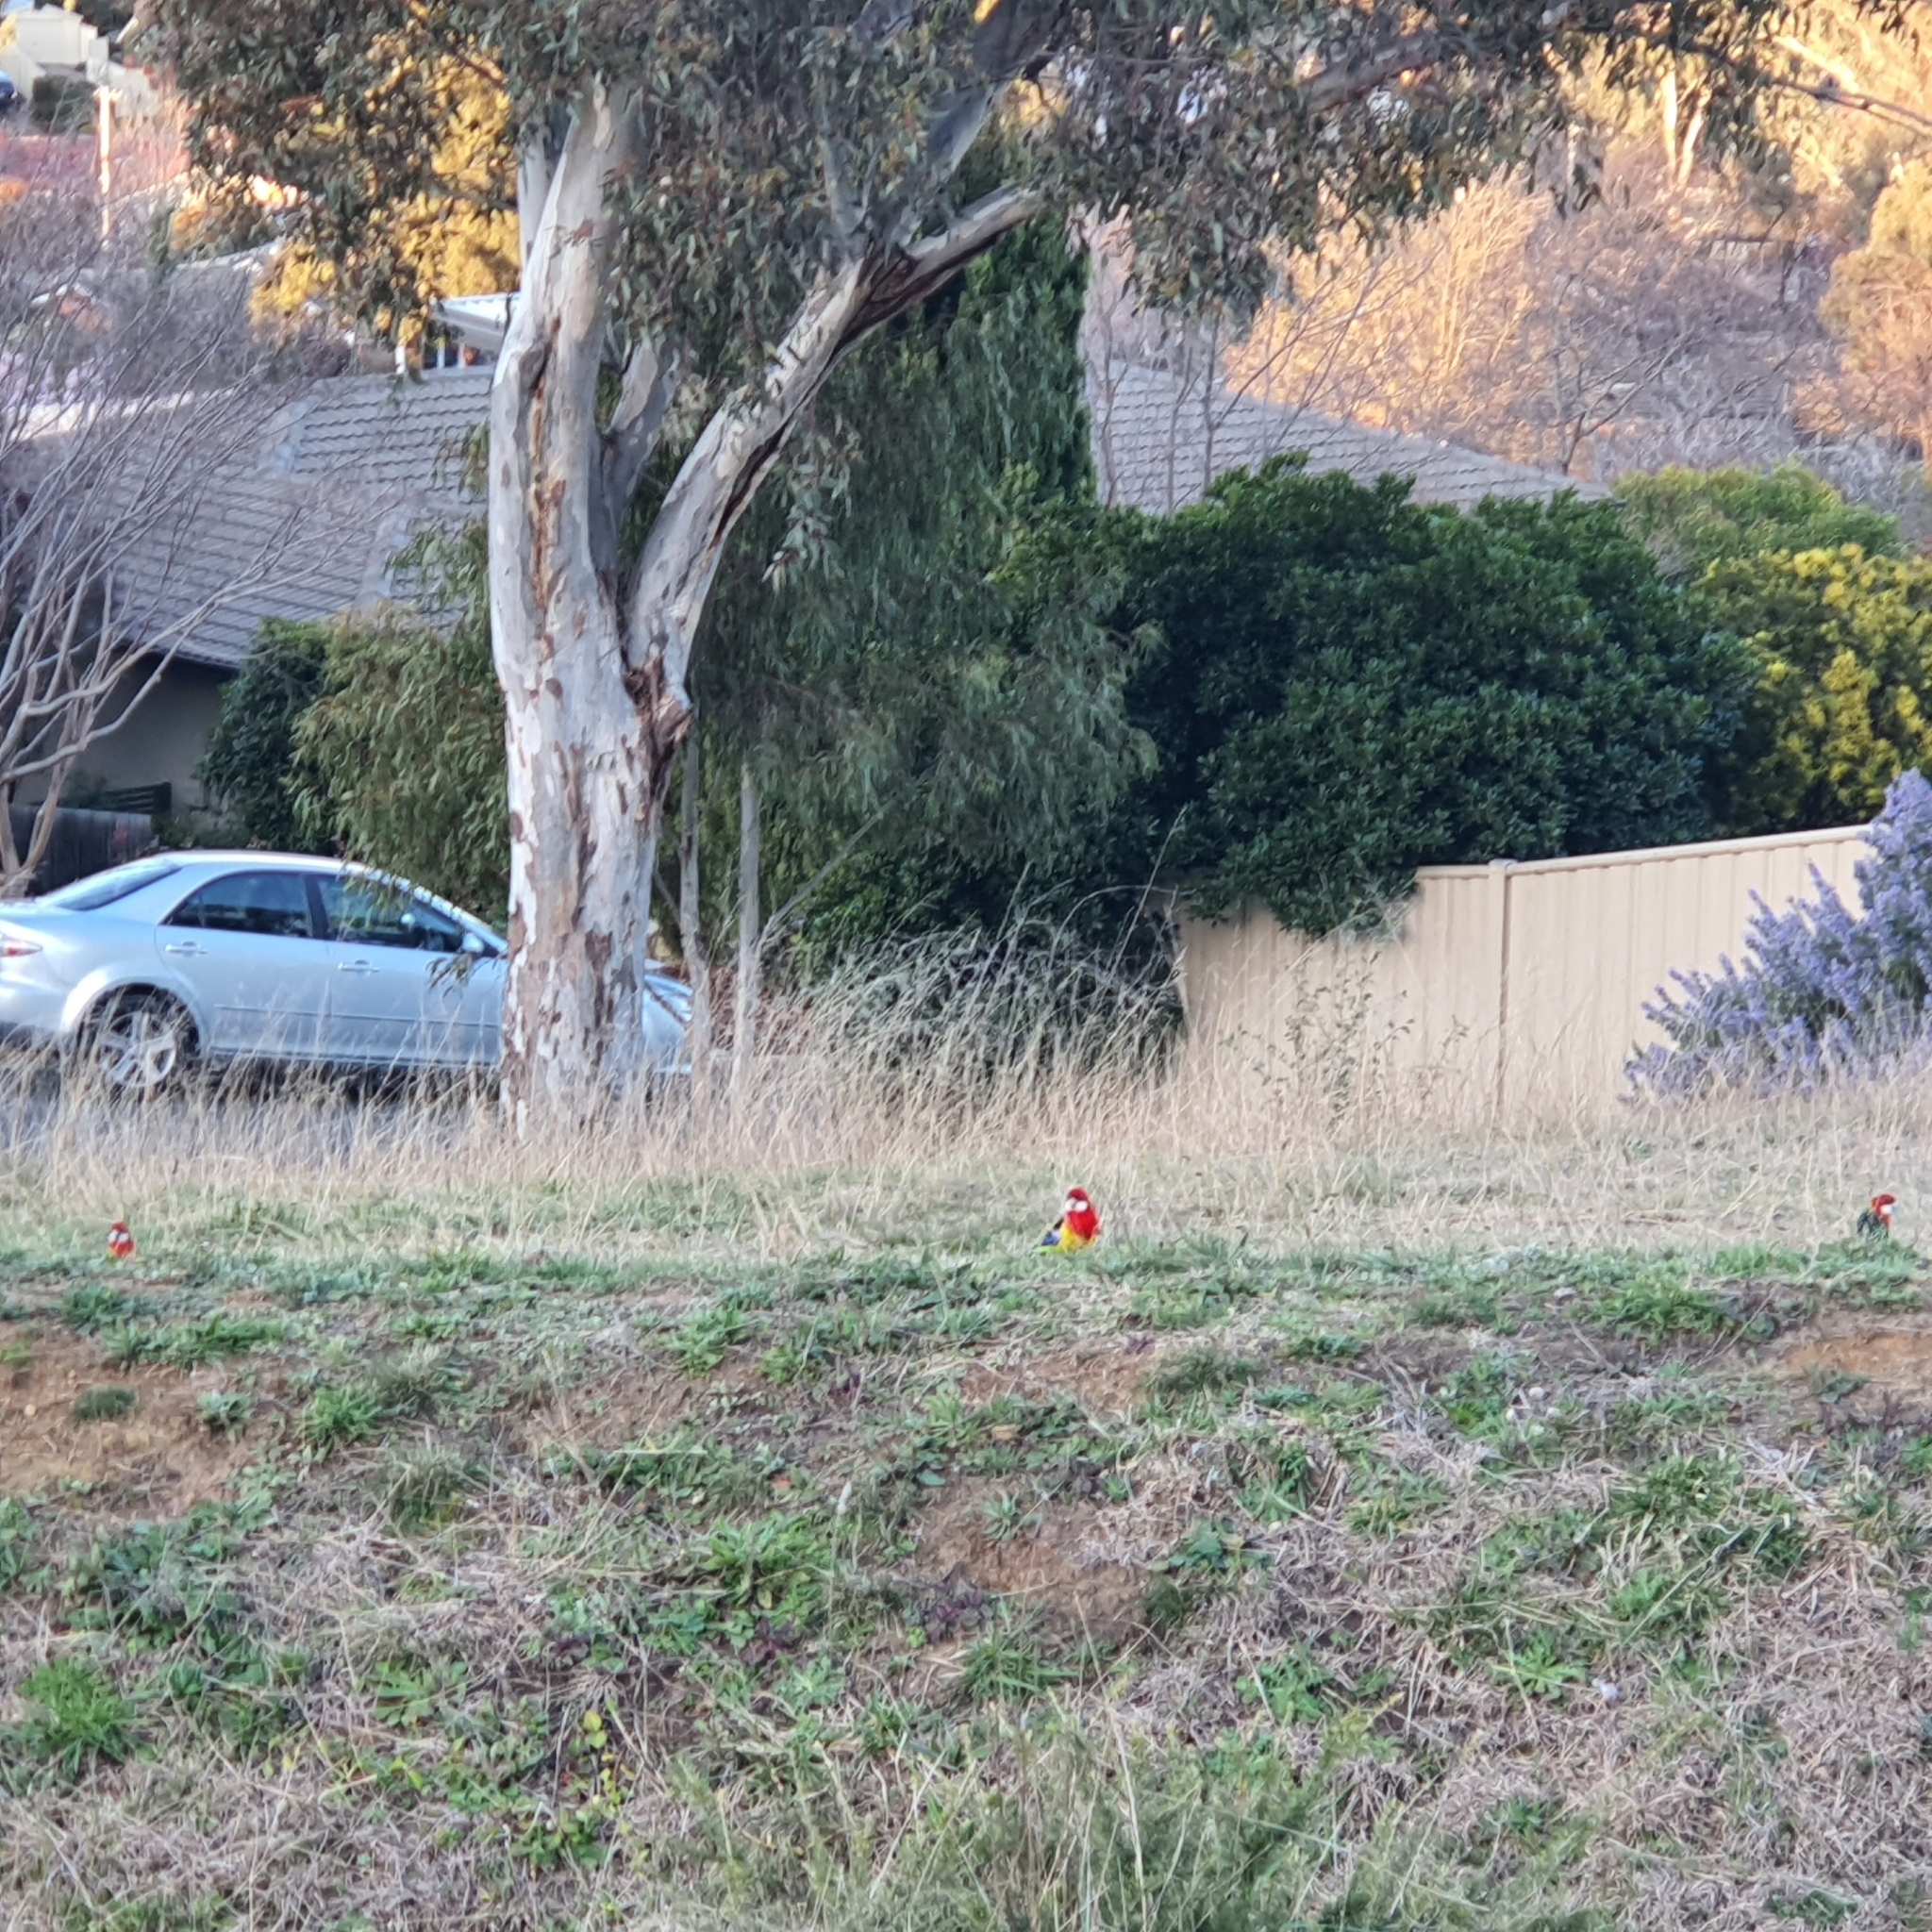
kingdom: Animalia
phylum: Chordata
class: Aves
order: Psittaciformes
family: Psittacidae
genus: Platycercus
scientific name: Platycercus eximius
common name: Eastern rosella
